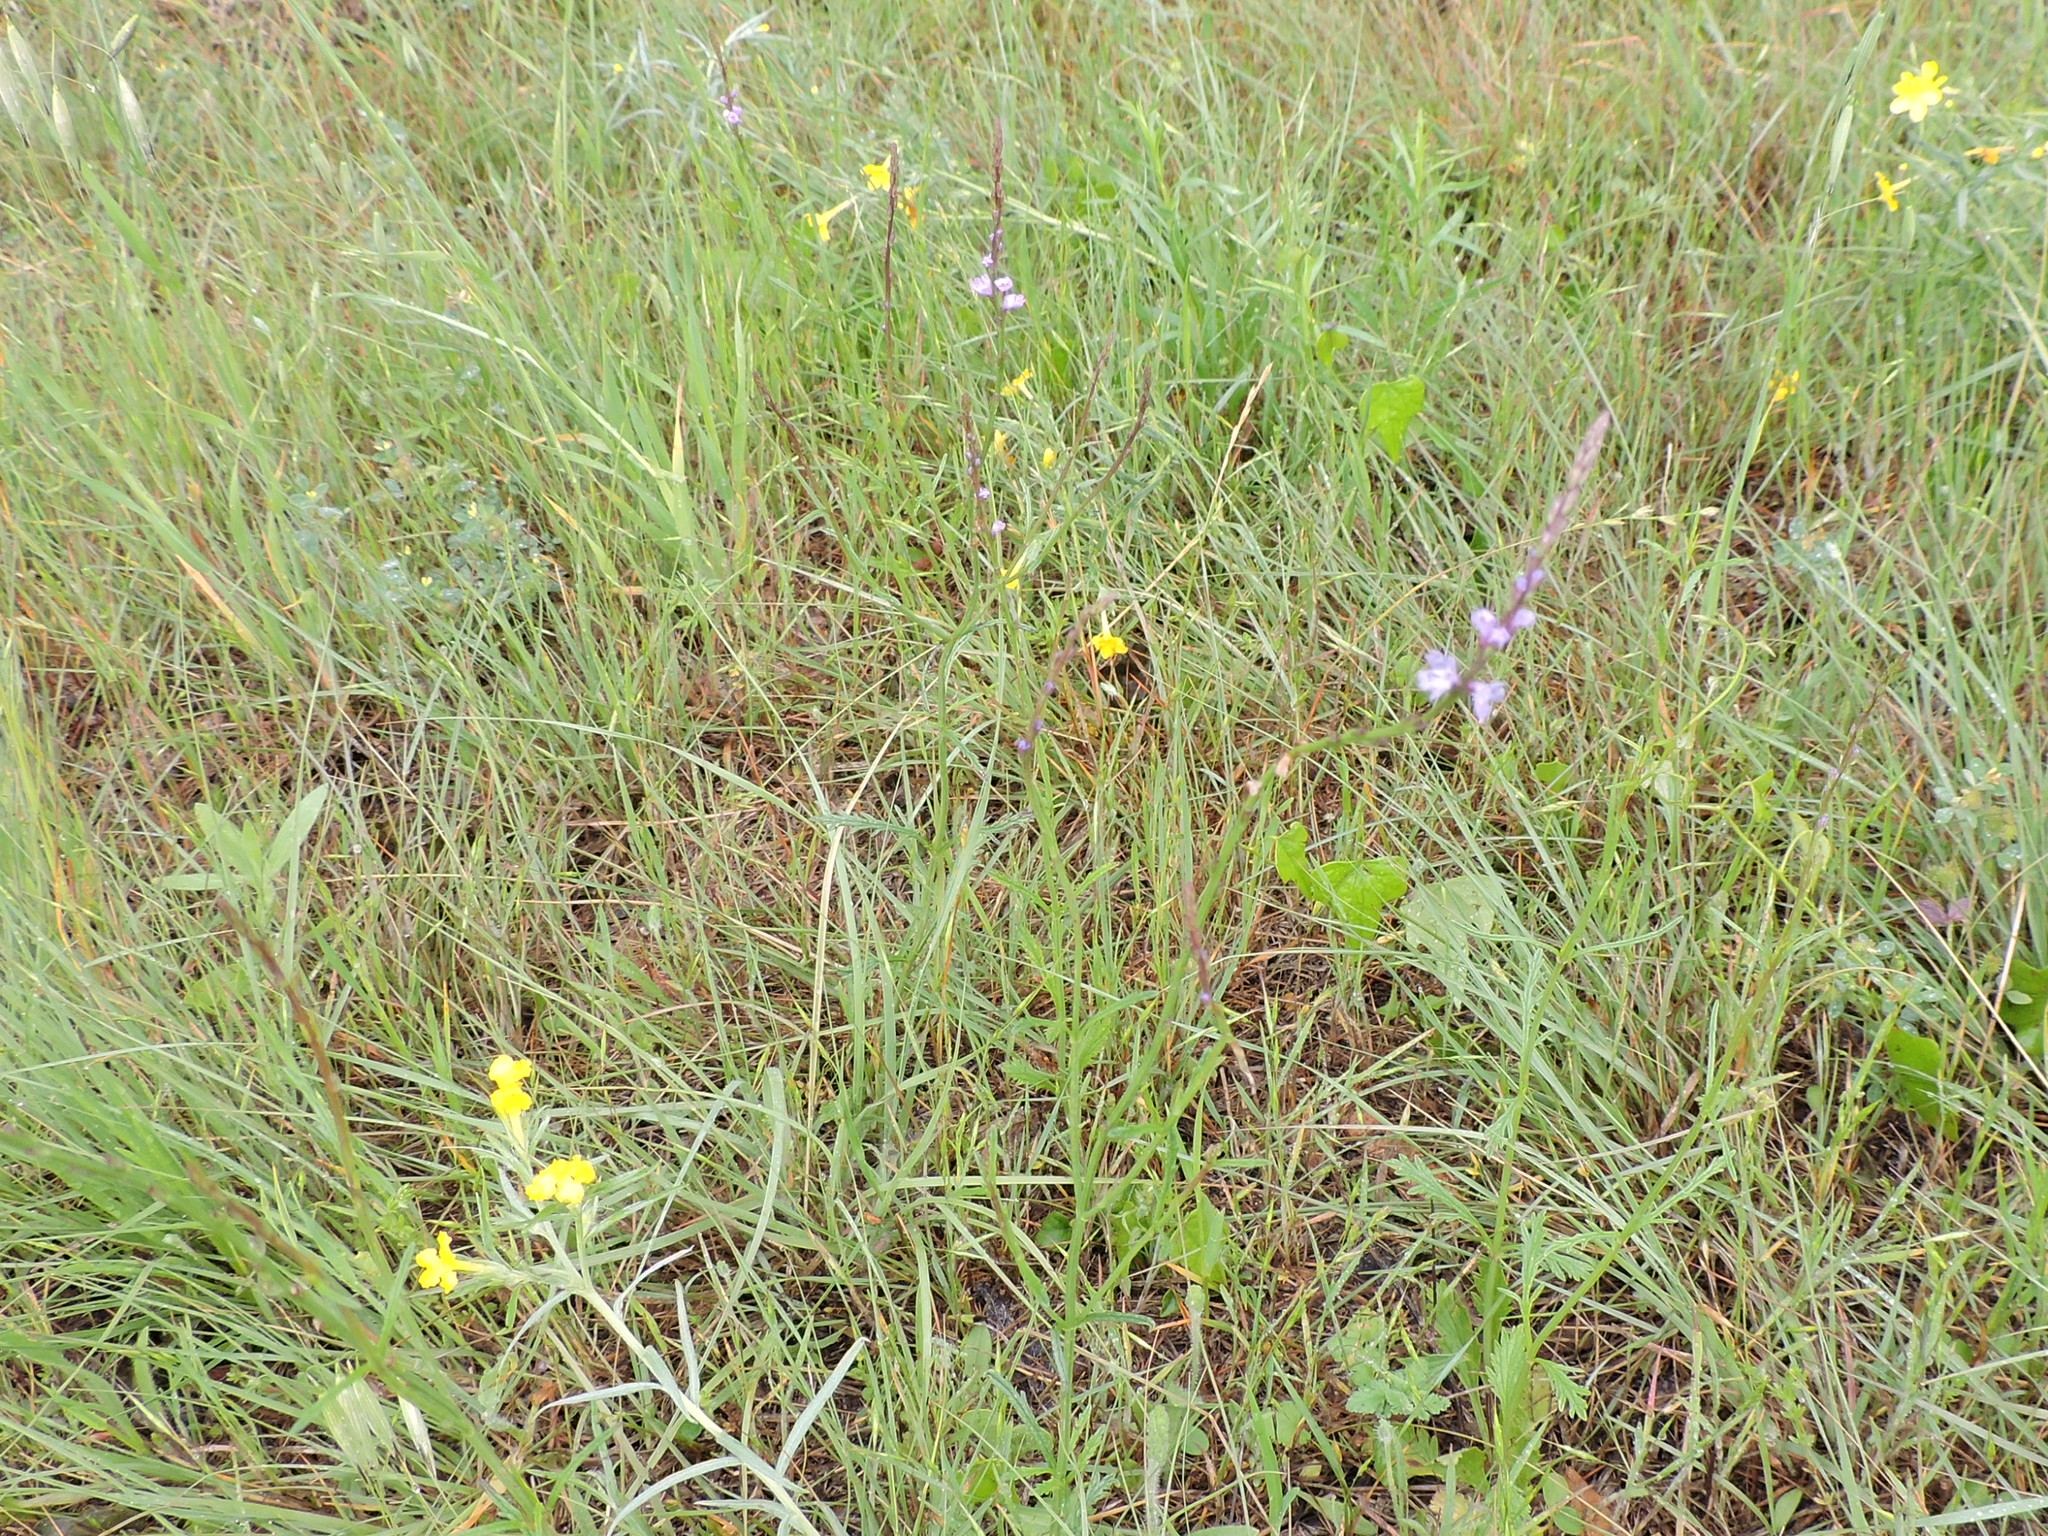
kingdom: Plantae
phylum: Tracheophyta
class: Magnoliopsida
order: Lamiales
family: Verbenaceae
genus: Verbena
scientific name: Verbena halei
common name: Texas vervain
